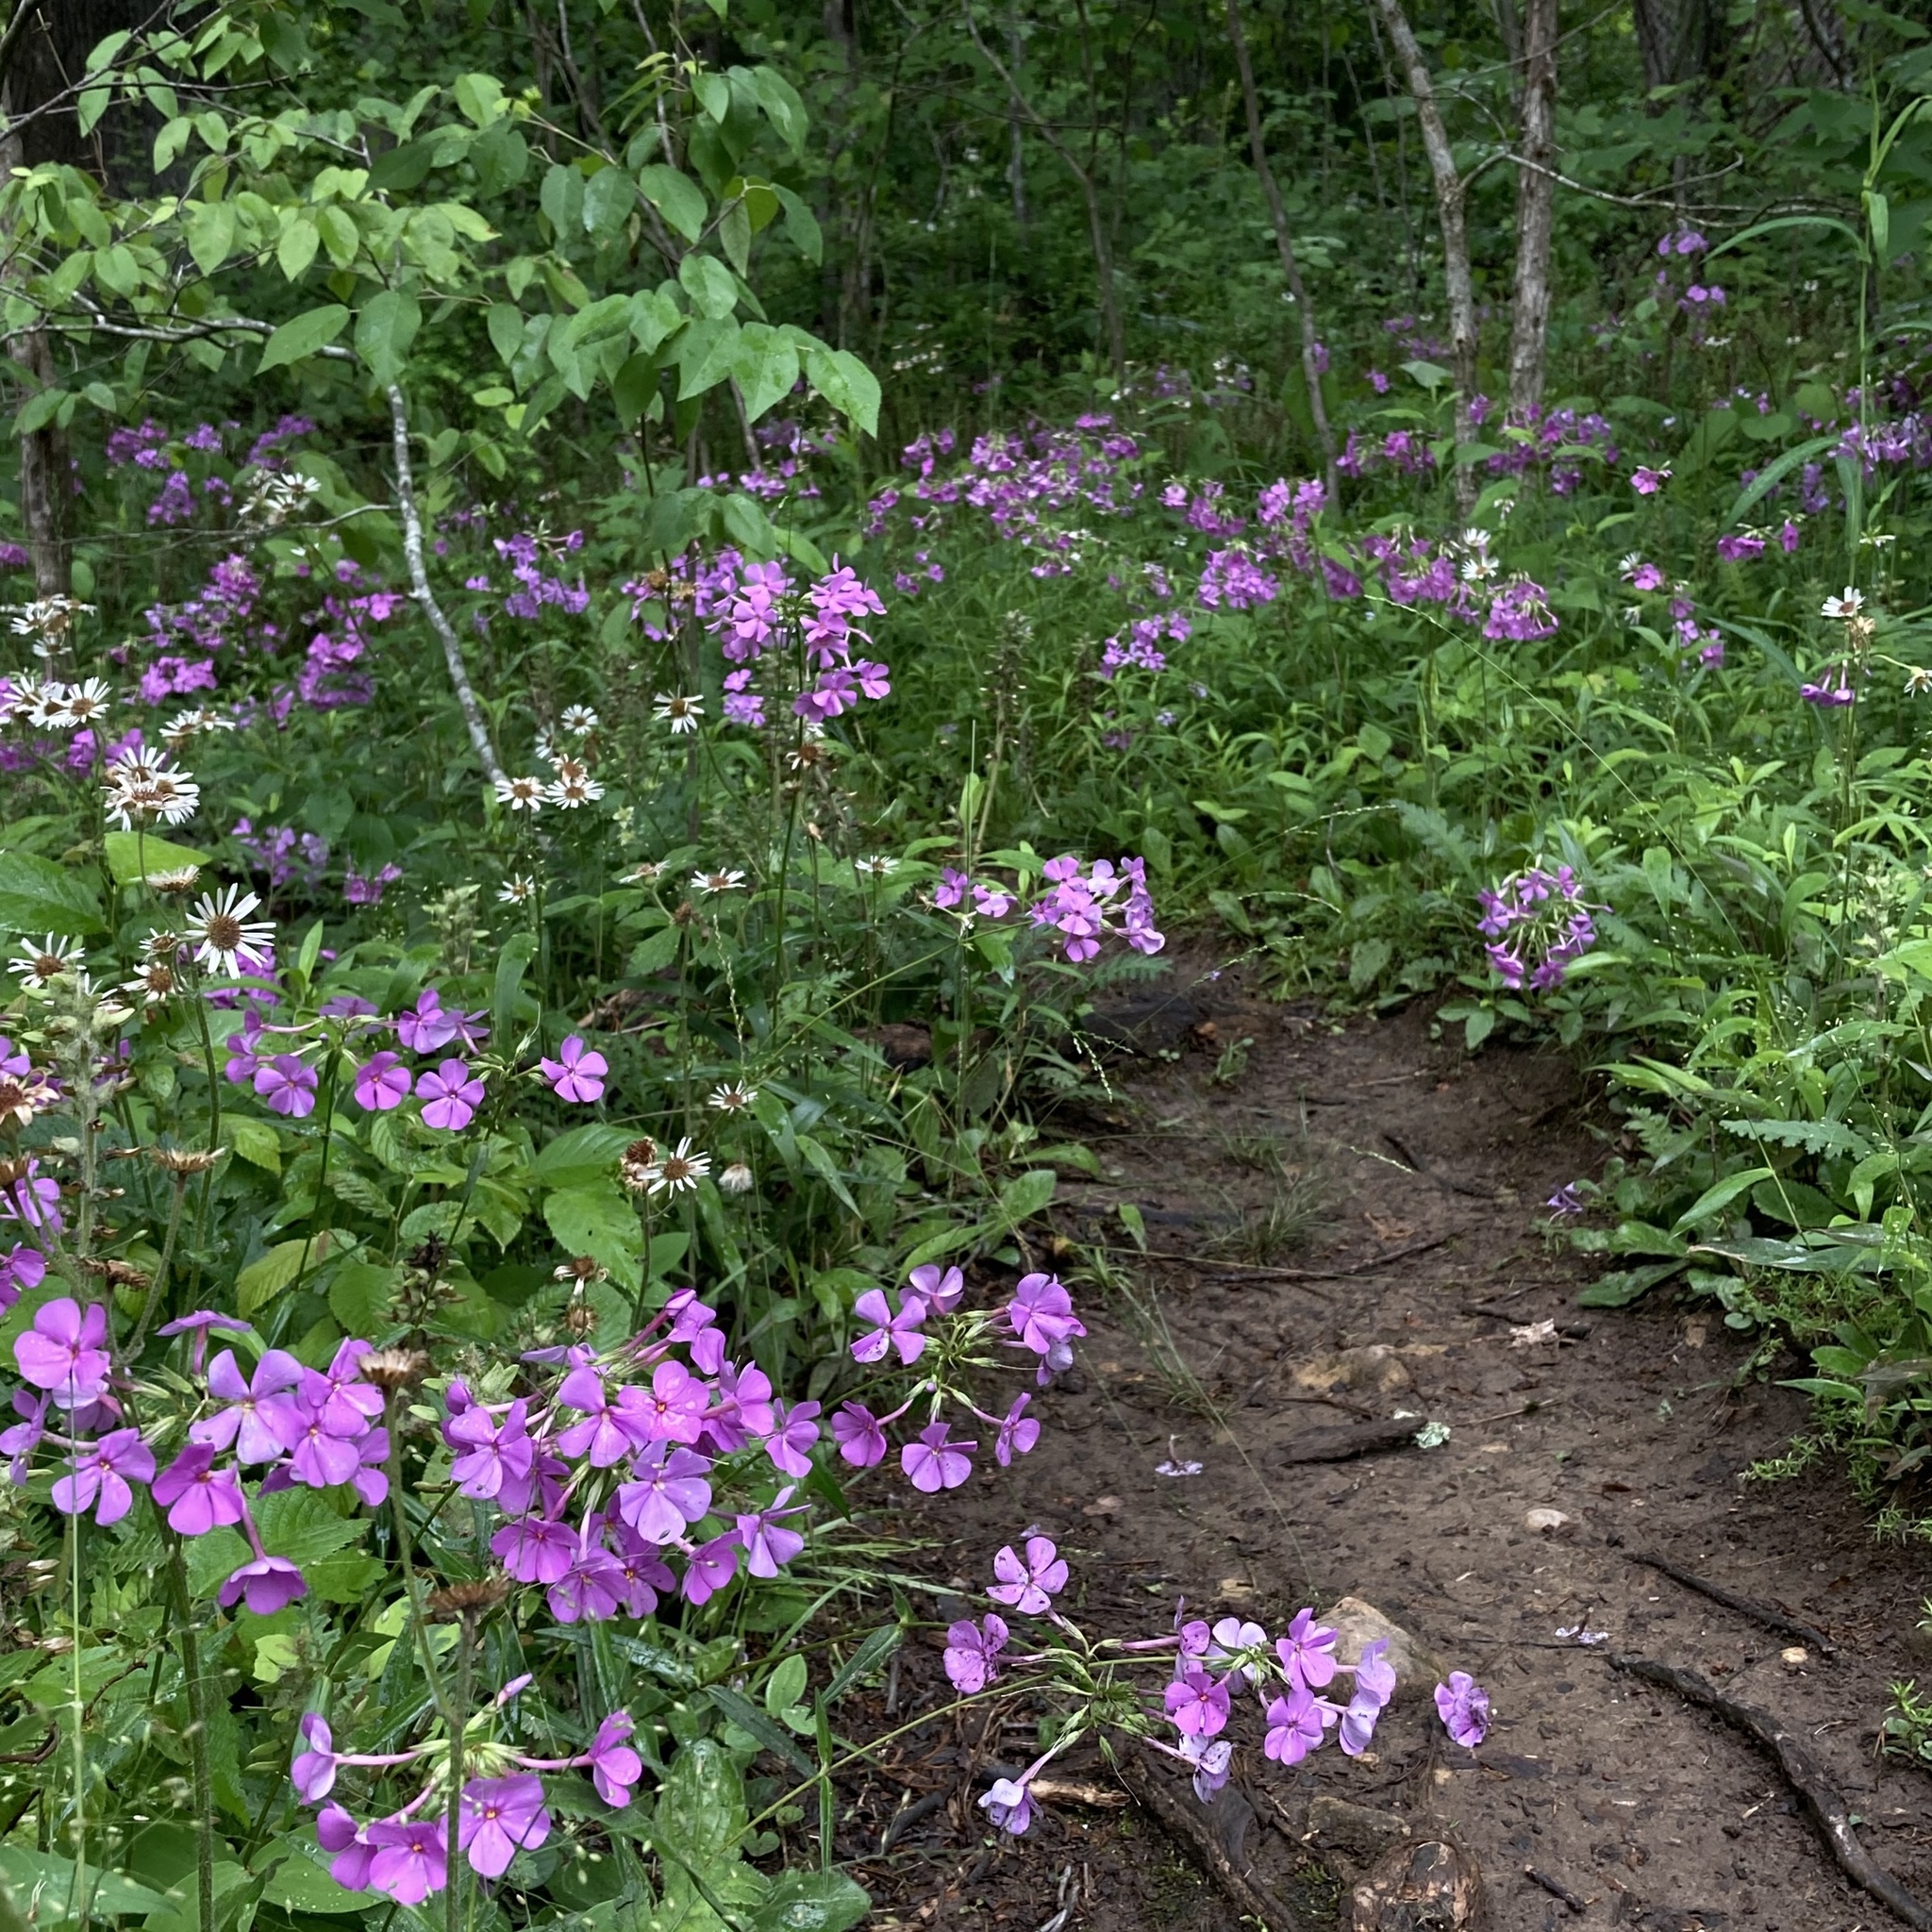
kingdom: Plantae
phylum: Tracheophyta
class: Magnoliopsida
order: Ericales
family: Polemoniaceae
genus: Phlox
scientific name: Phlox glaberrima
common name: Smooth phlox
